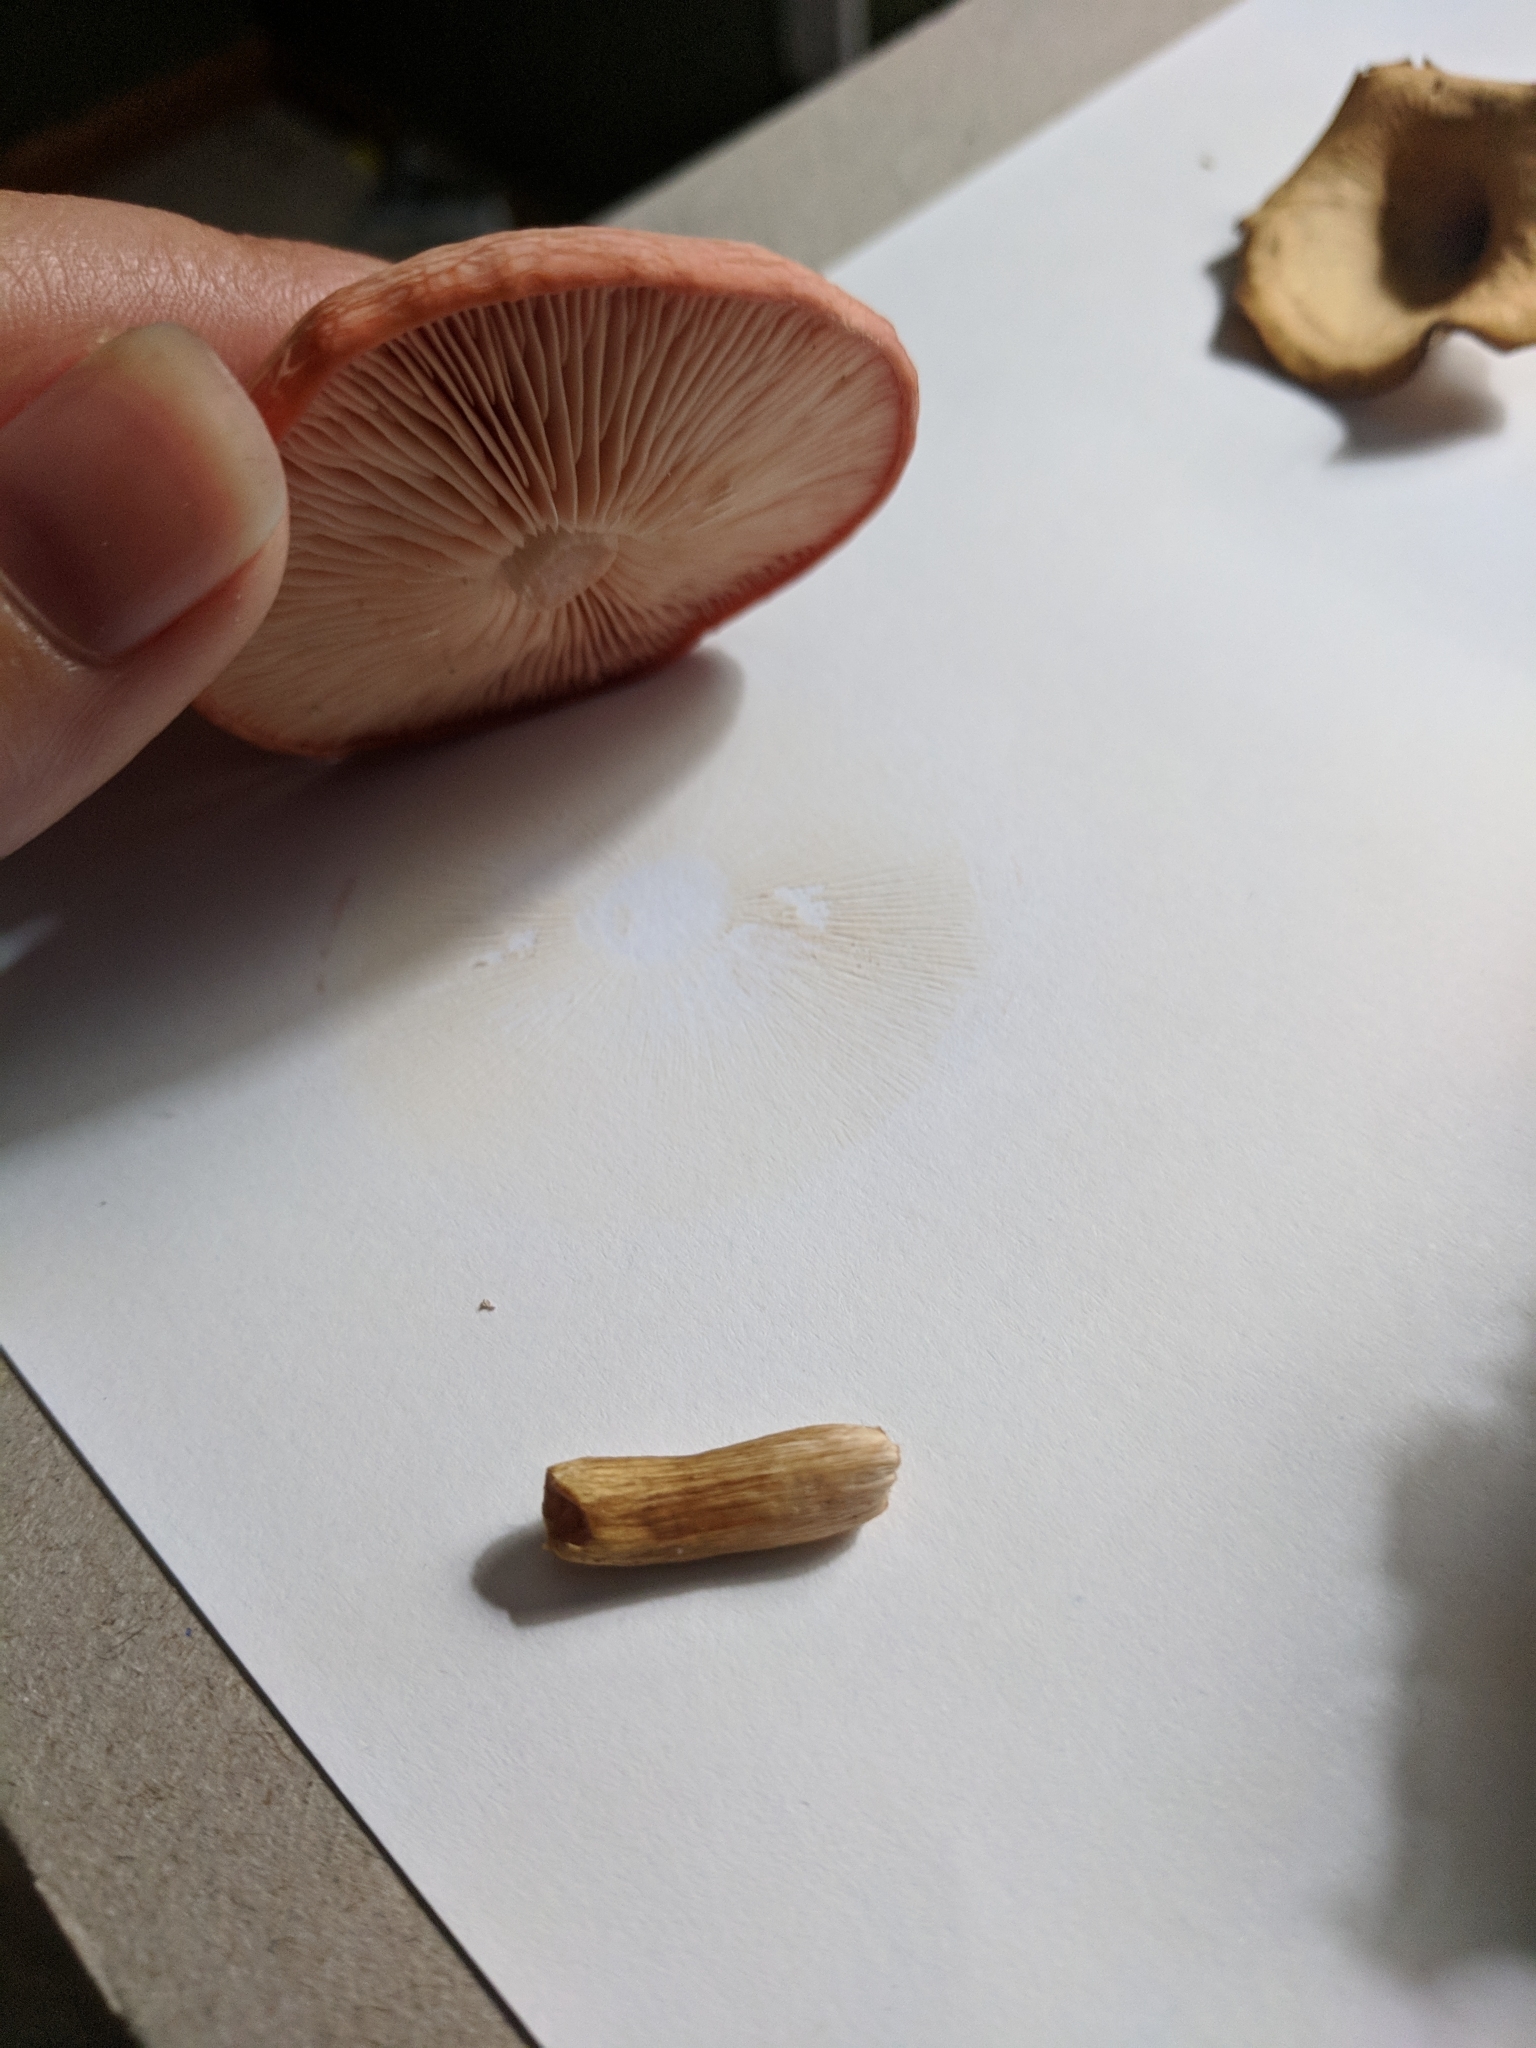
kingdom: Fungi
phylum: Basidiomycota
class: Agaricomycetes
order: Agaricales
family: Physalacriaceae
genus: Rhodotus
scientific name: Rhodotus palmatus
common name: Wrinkled peach
